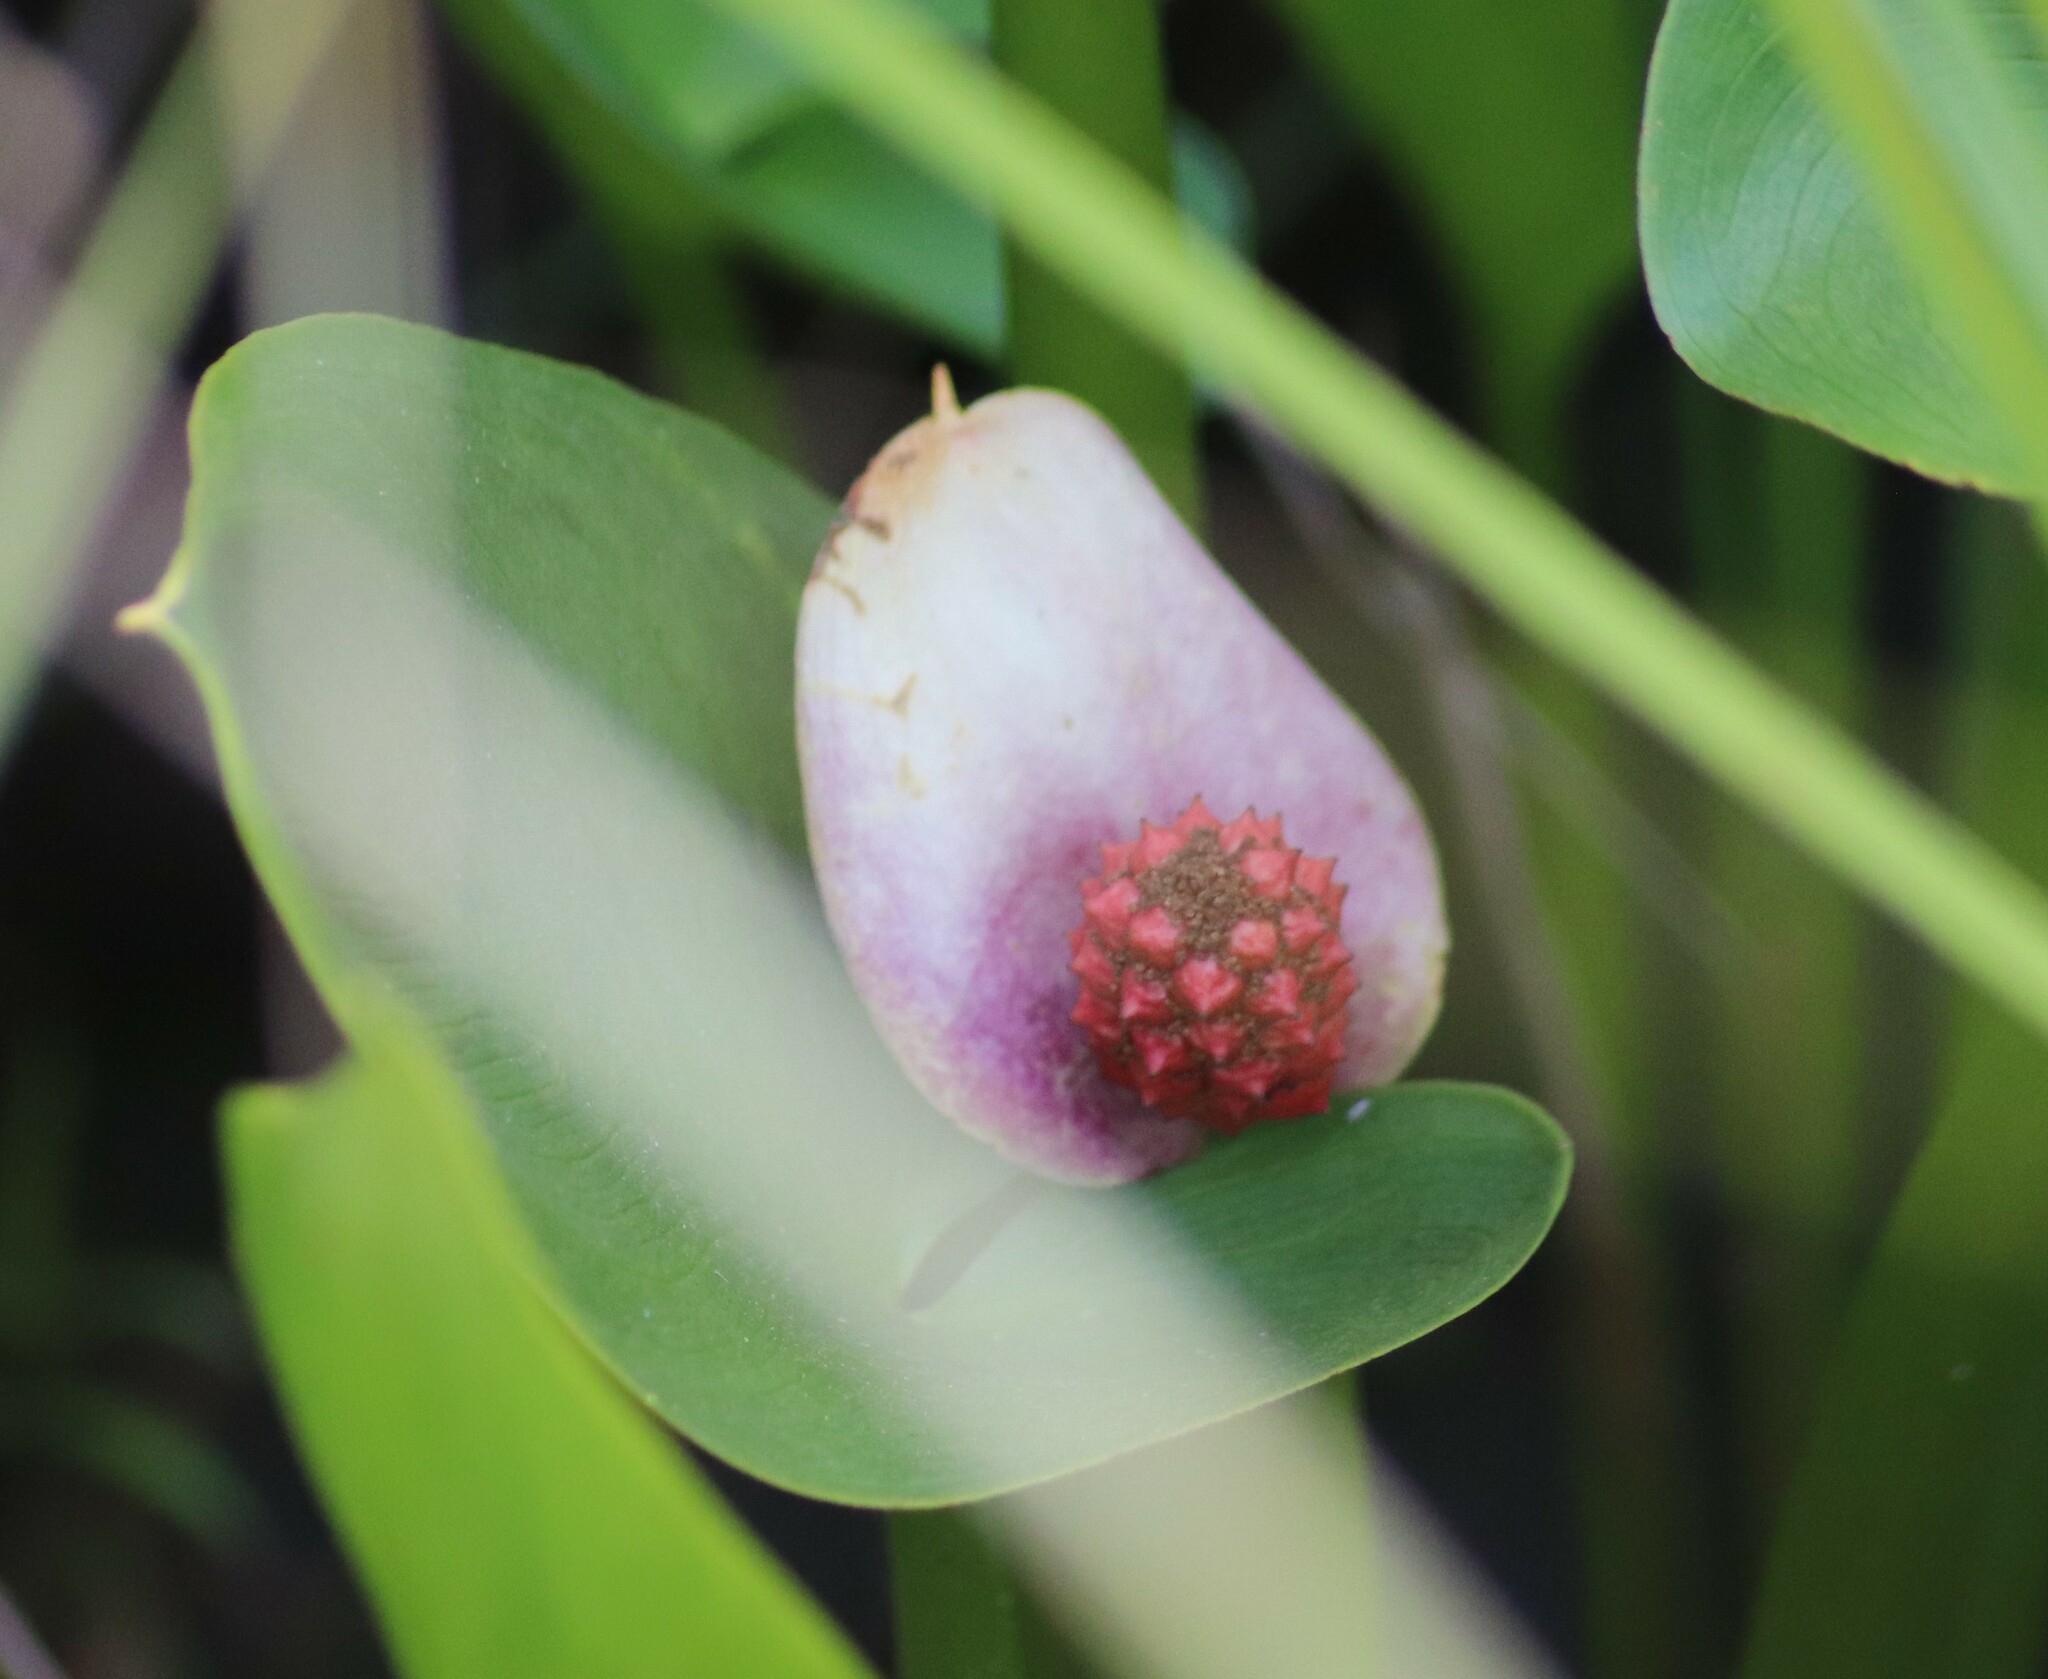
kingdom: Plantae
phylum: Tracheophyta
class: Liliopsida
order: Alismatales
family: Araceae
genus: Calla
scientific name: Calla palustris
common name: Bog arum
